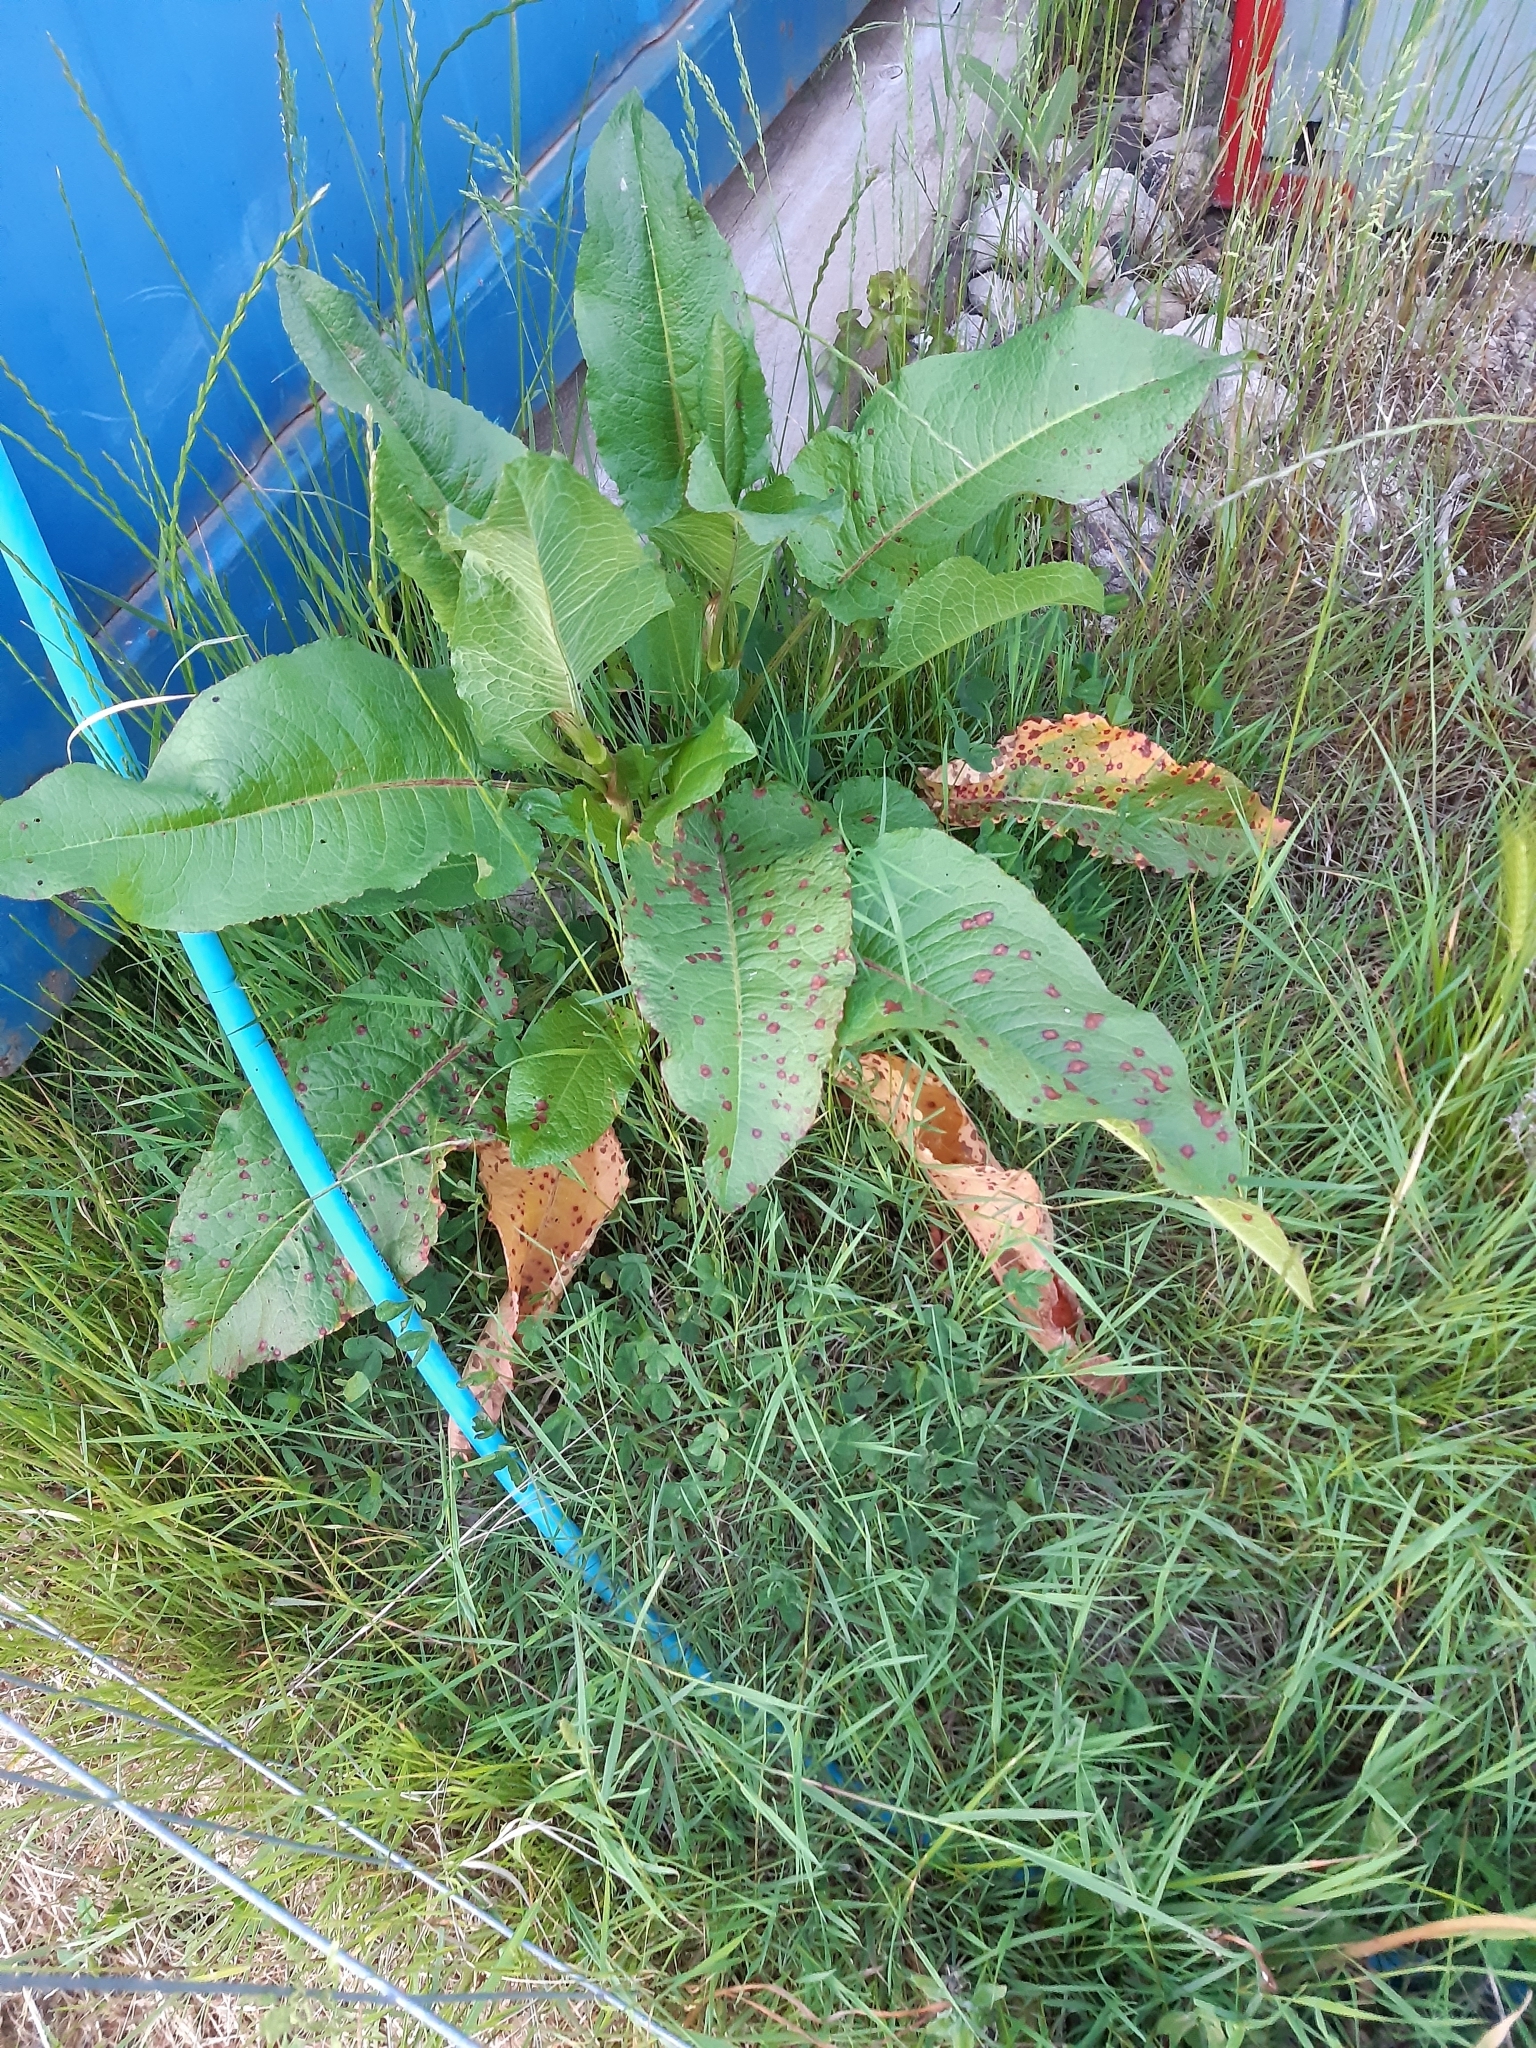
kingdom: Plantae
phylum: Tracheophyta
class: Magnoliopsida
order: Caryophyllales
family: Polygonaceae
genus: Rumex
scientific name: Rumex obtusifolius
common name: Bitter dock
